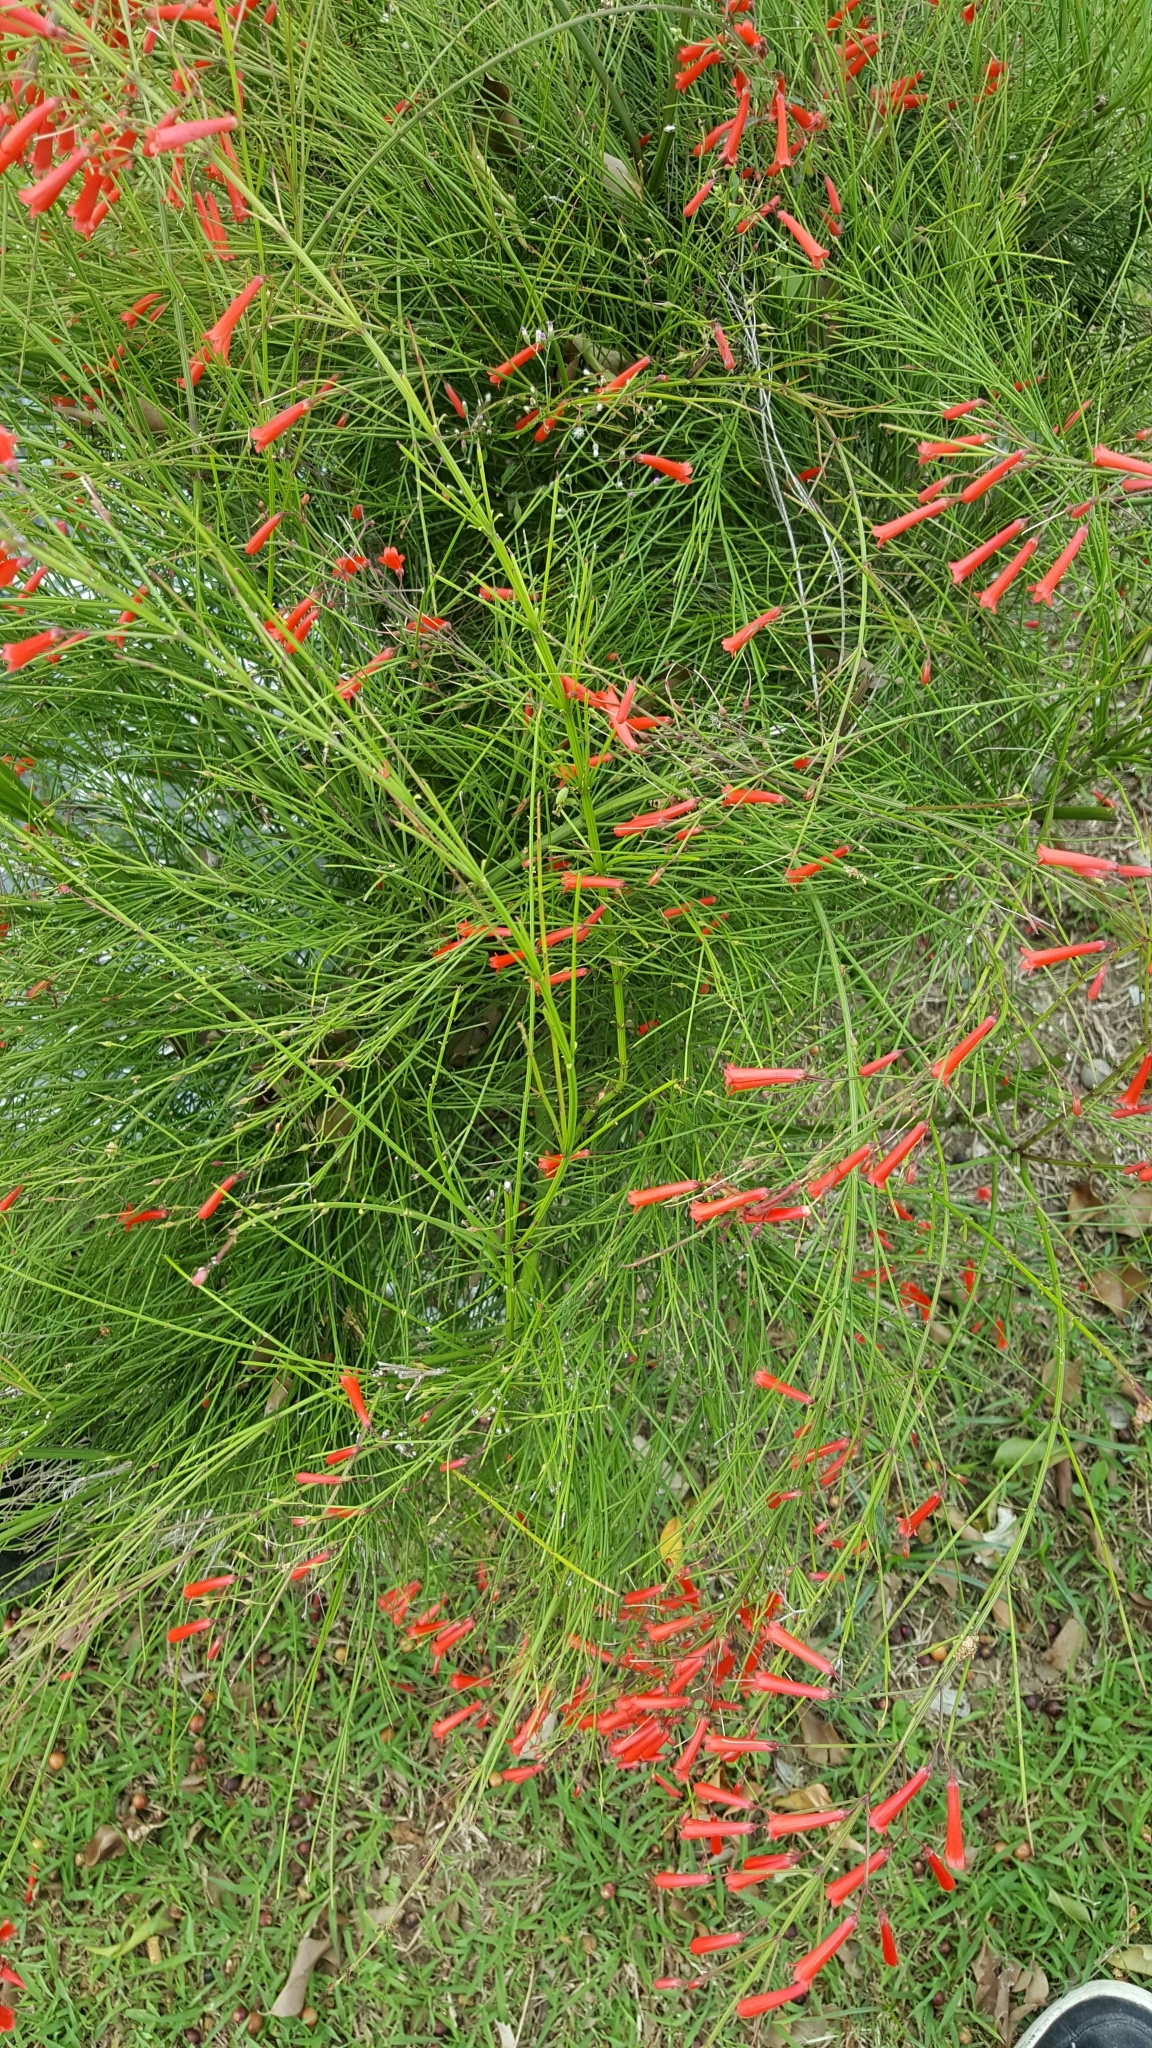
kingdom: Plantae
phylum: Tracheophyta
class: Magnoliopsida
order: Lamiales
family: Plantaginaceae
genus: Russelia
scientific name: Russelia equisetiformis
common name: Fountainbush
